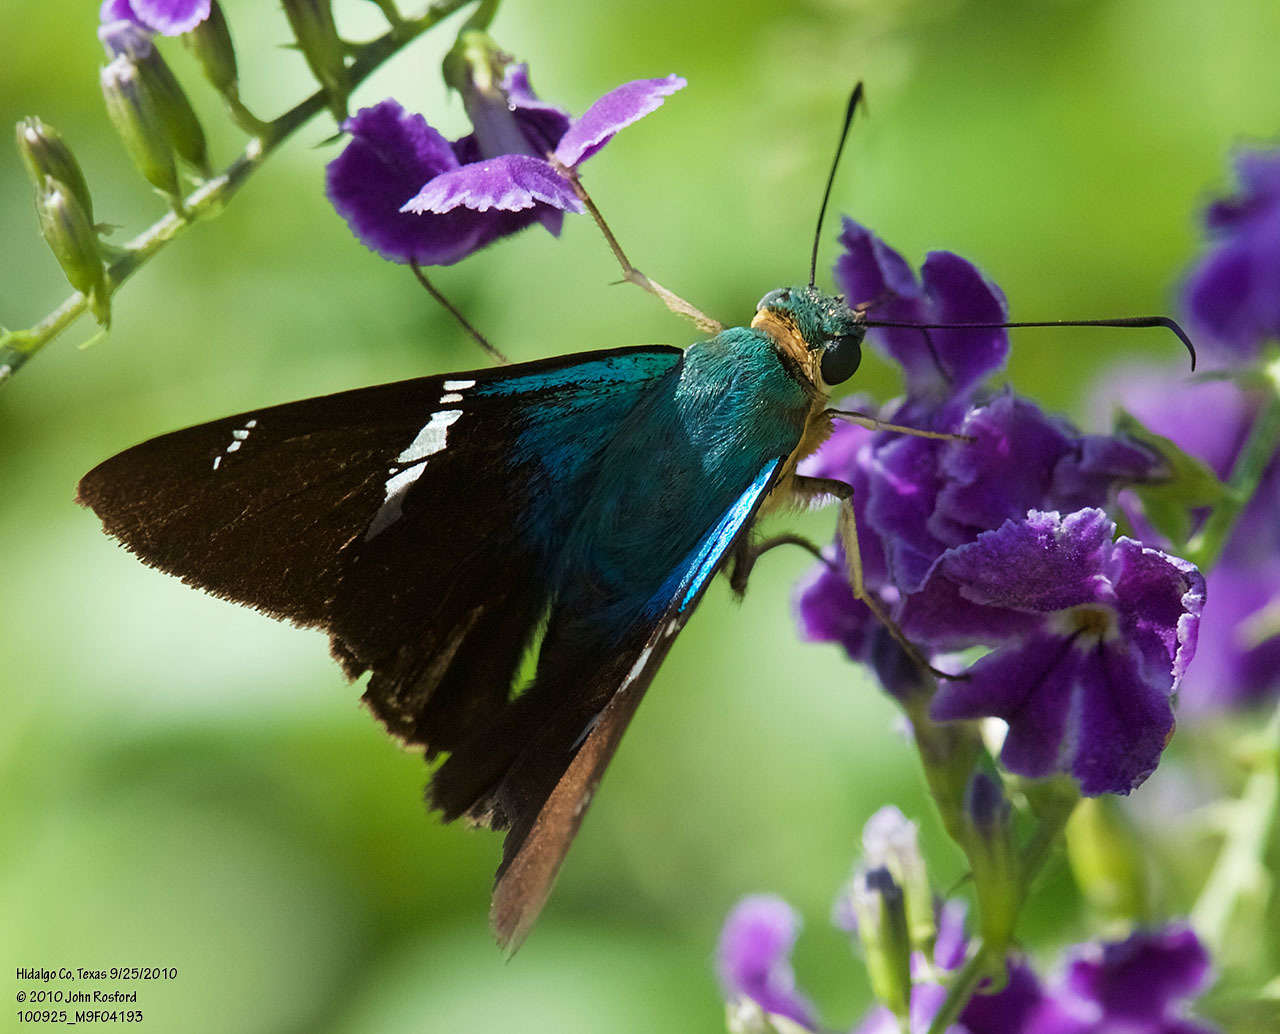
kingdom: Animalia
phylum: Arthropoda
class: Insecta
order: Lepidoptera
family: Hesperiidae
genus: Astraptes
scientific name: Astraptes fulgerator
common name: Two-barred flasher
